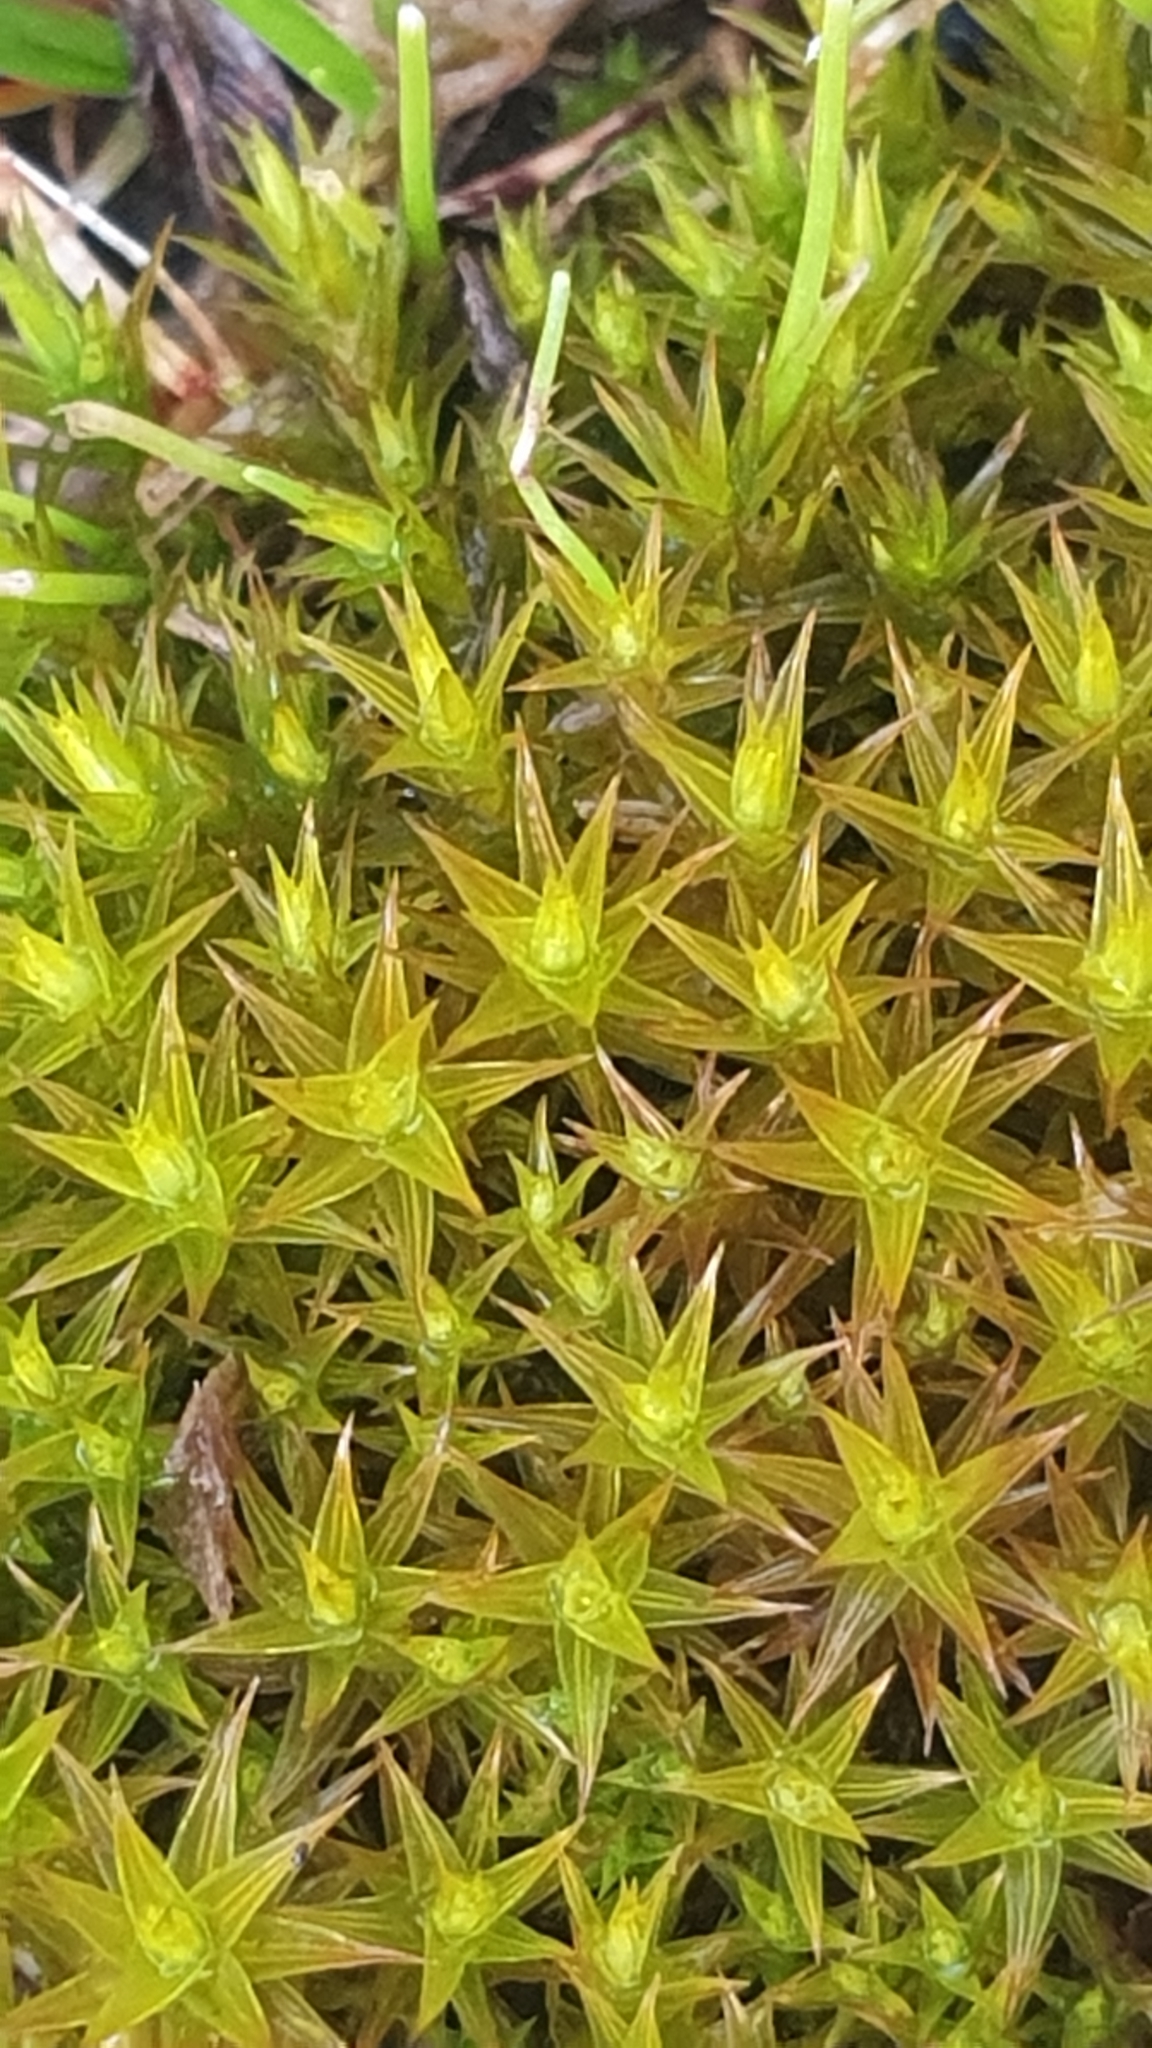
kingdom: Plantae
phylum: Bryophyta
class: Bryopsida
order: Pottiales
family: Pottiaceae
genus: Gertrudiella
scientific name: Gertrudiella torquata
